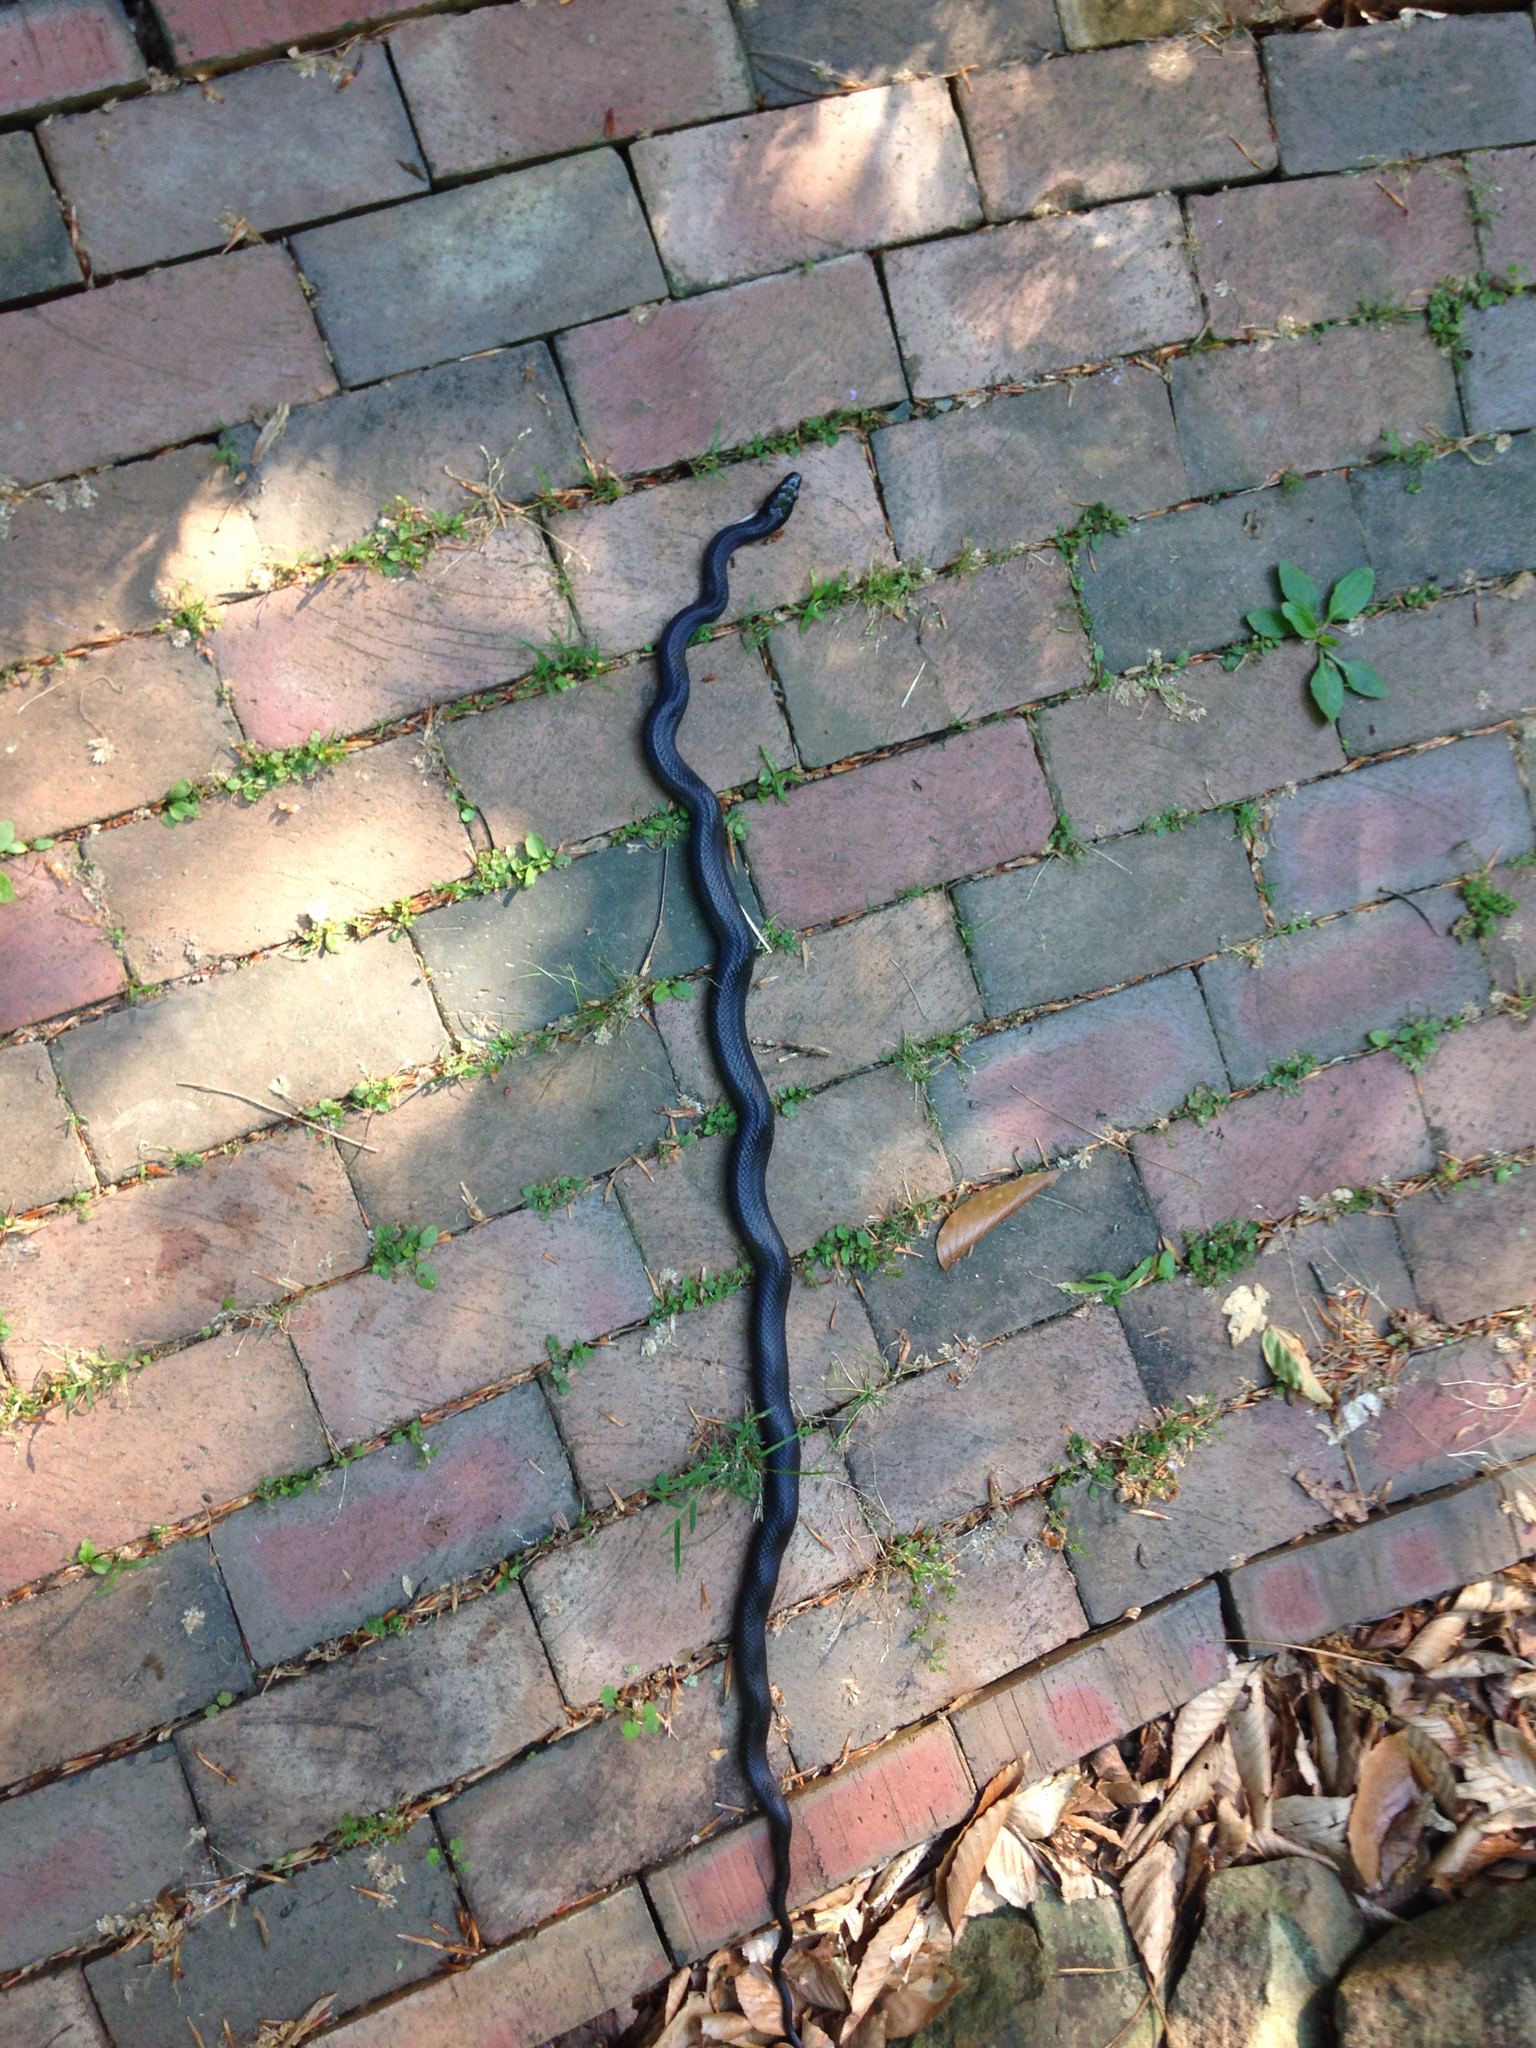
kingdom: Animalia
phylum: Chordata
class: Squamata
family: Colubridae
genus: Pantherophis
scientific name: Pantherophis alleghaniensis
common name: Eastern rat snake
